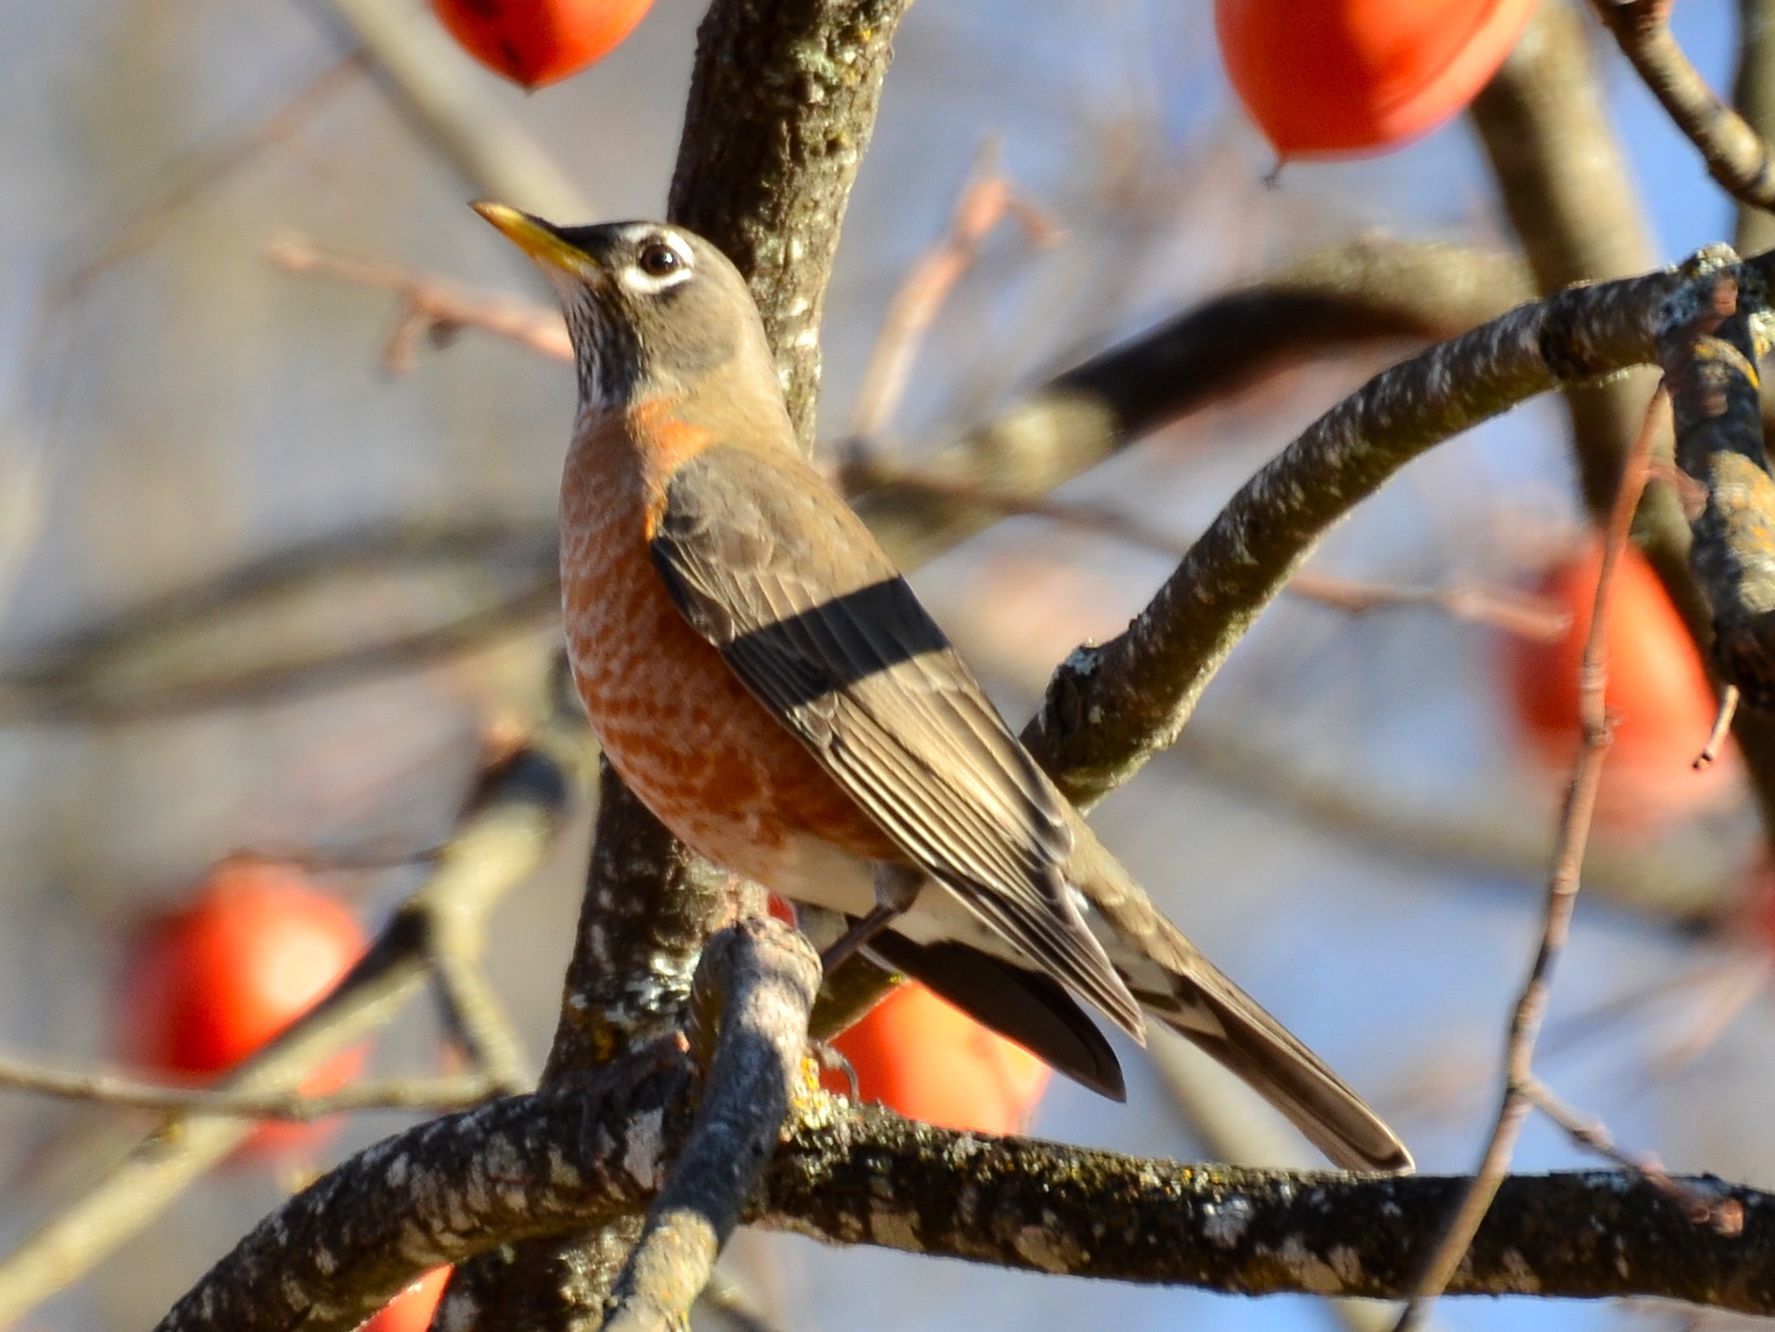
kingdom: Animalia
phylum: Chordata
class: Aves
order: Passeriformes
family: Turdidae
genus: Turdus
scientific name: Turdus migratorius
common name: American robin
